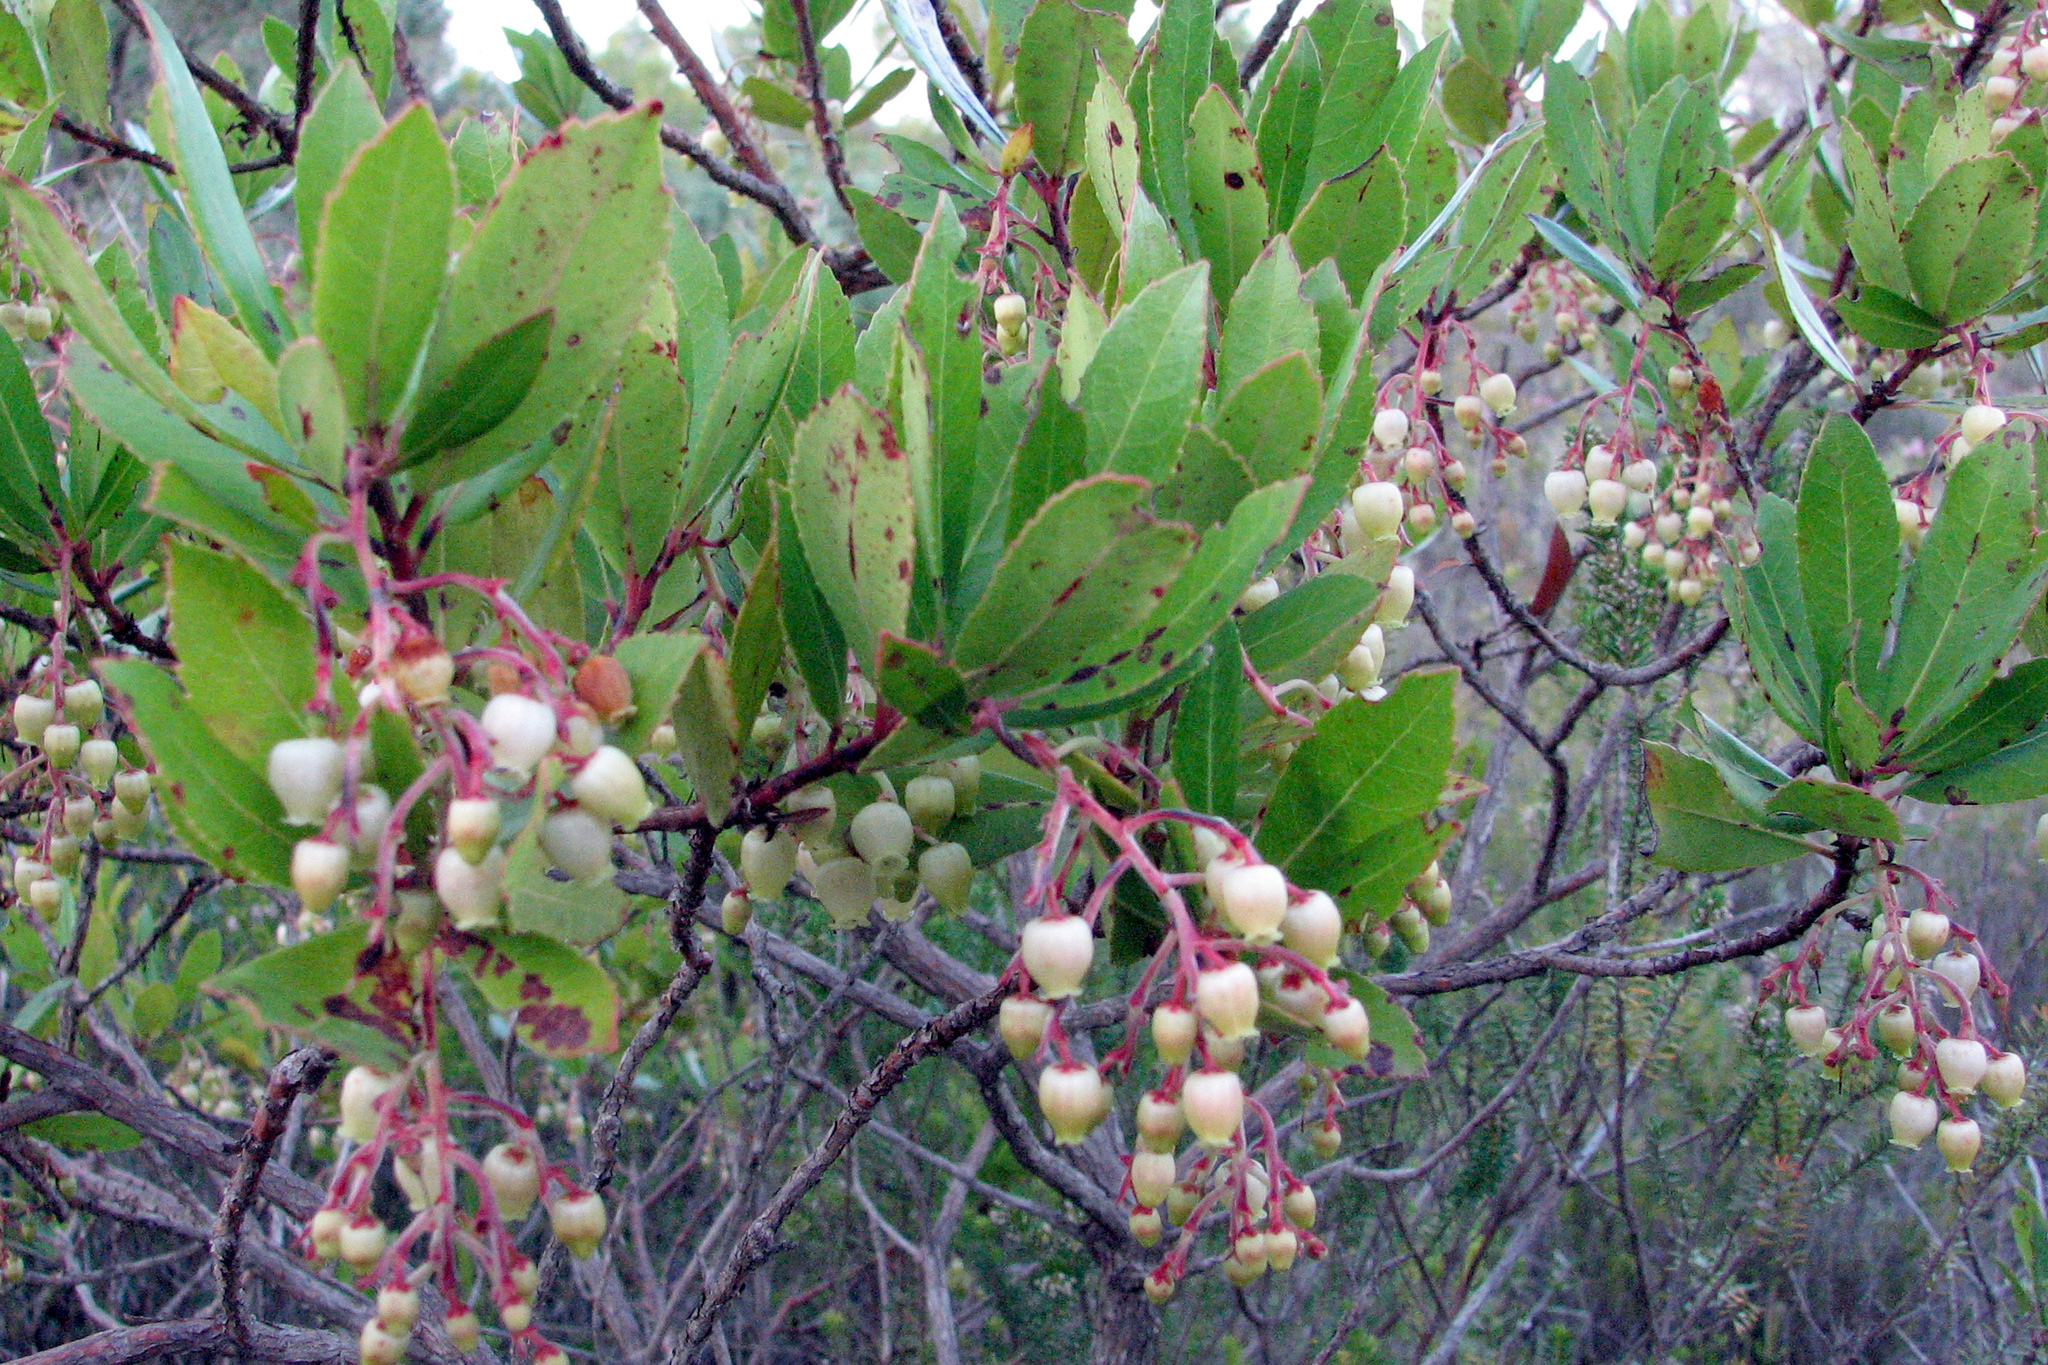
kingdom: Plantae
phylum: Tracheophyta
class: Magnoliopsida
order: Ericales
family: Ericaceae
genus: Arbutus
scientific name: Arbutus unedo
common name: Strawberry-tree
